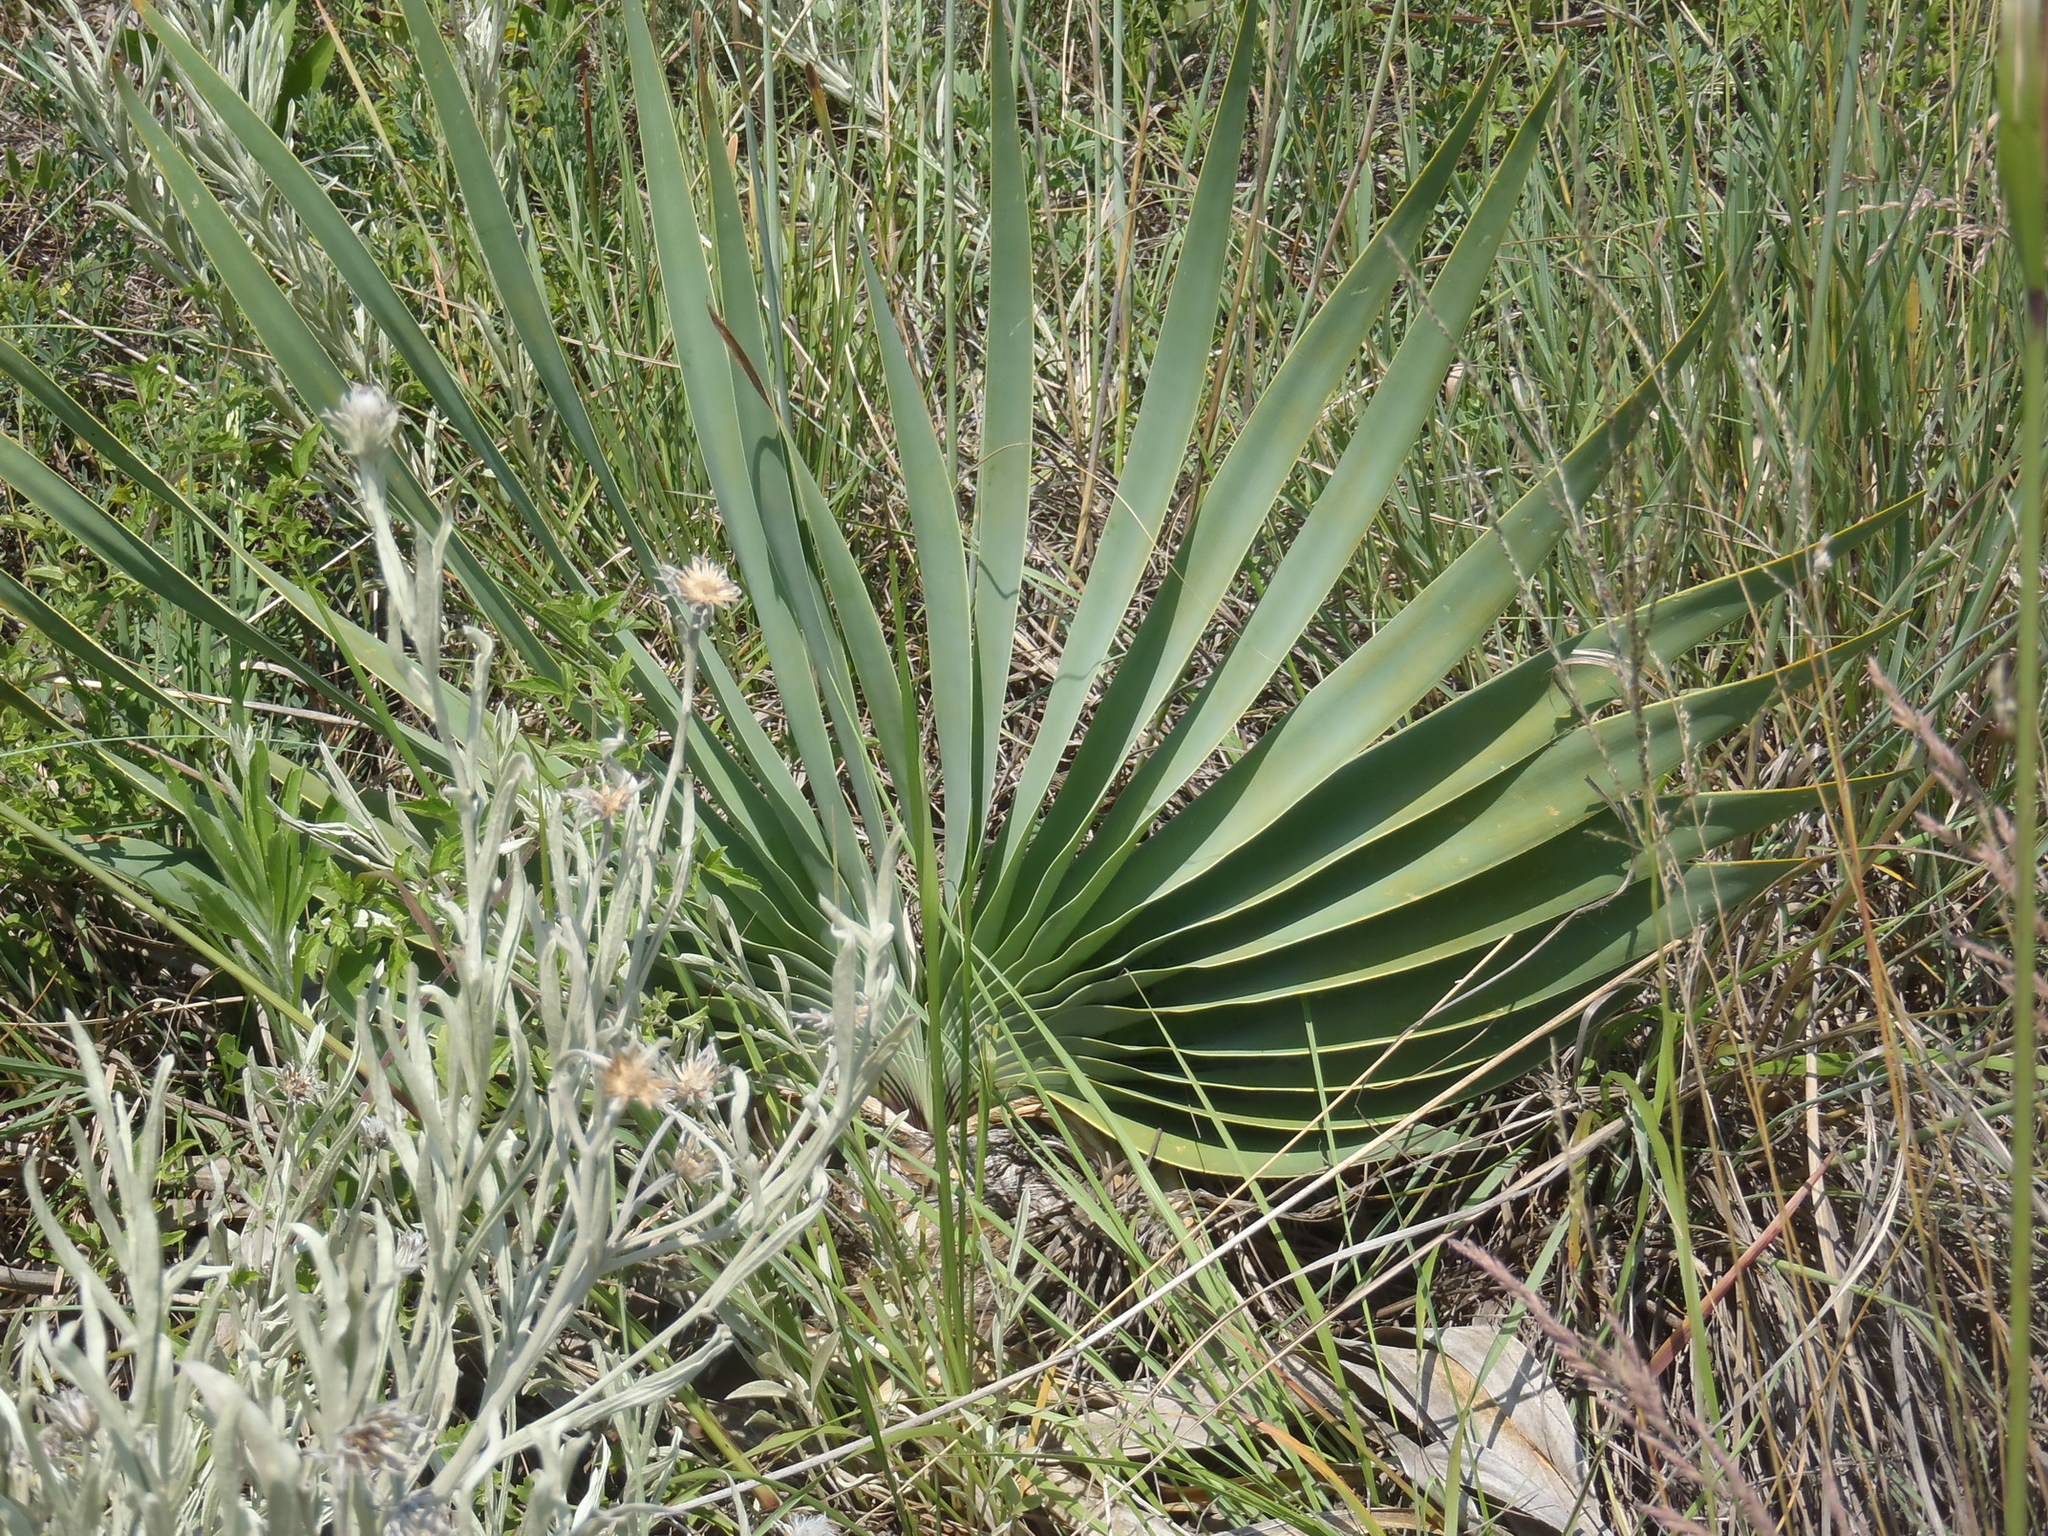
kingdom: Plantae
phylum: Tracheophyta
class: Liliopsida
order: Asparagales
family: Amaryllidaceae
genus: Boophone
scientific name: Boophone disticha
